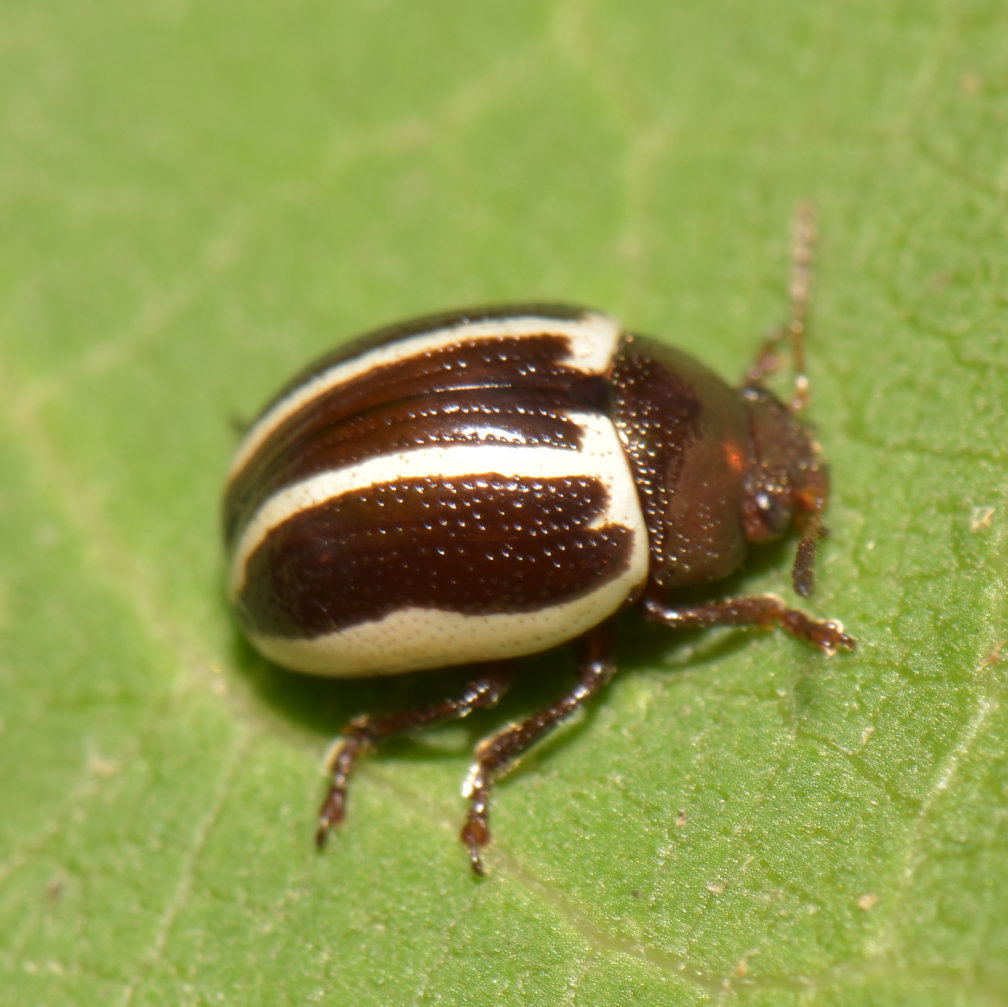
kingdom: Animalia
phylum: Arthropoda
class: Insecta
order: Coleoptera
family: Chrysomelidae
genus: Calligrapha
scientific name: Calligrapha
